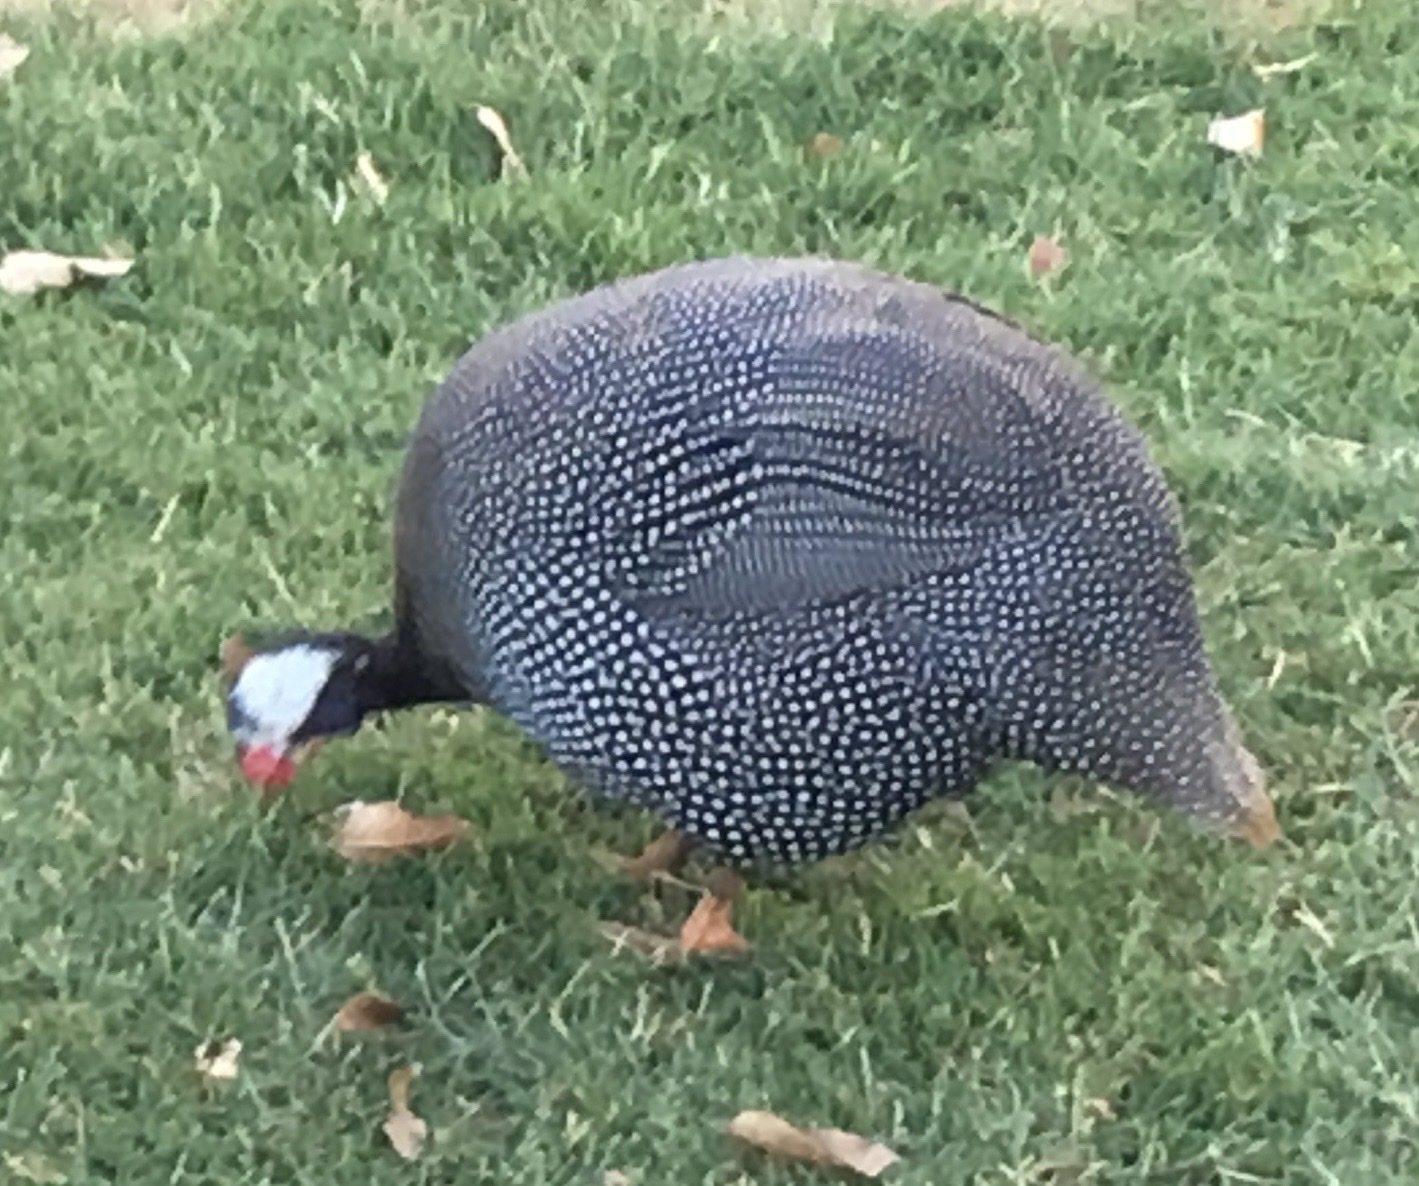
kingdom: Animalia
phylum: Chordata
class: Aves
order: Galliformes
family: Numididae
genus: Numida
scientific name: Numida meleagris
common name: Helmeted guineafowl
